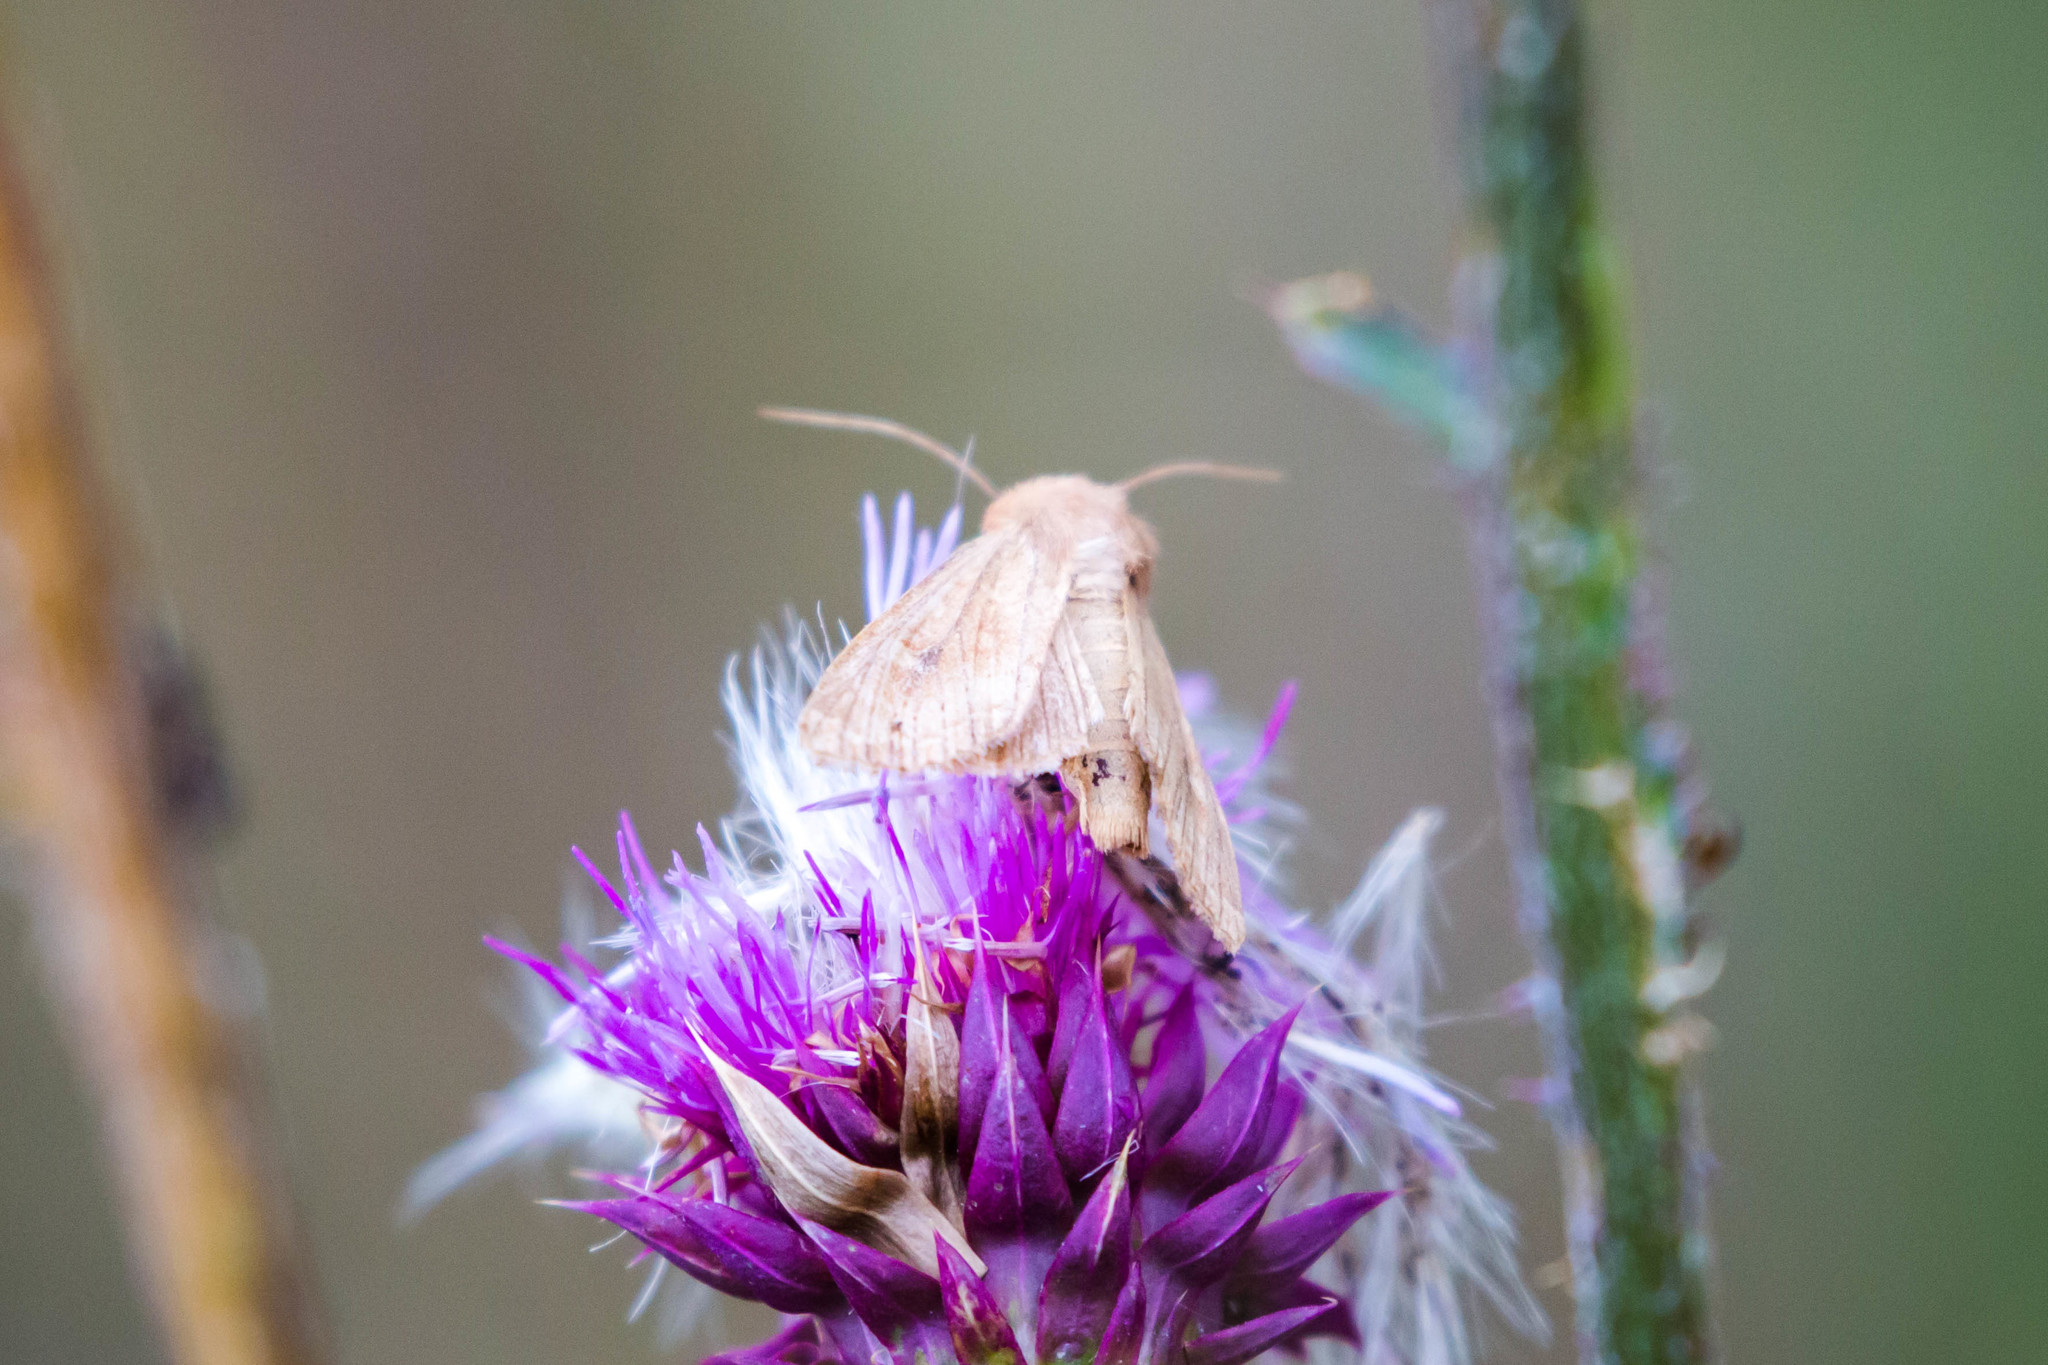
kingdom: Animalia
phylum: Arthropoda
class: Insecta
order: Lepidoptera
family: Noctuidae
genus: Helicoverpa
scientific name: Helicoverpa zea
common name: Bollworm
